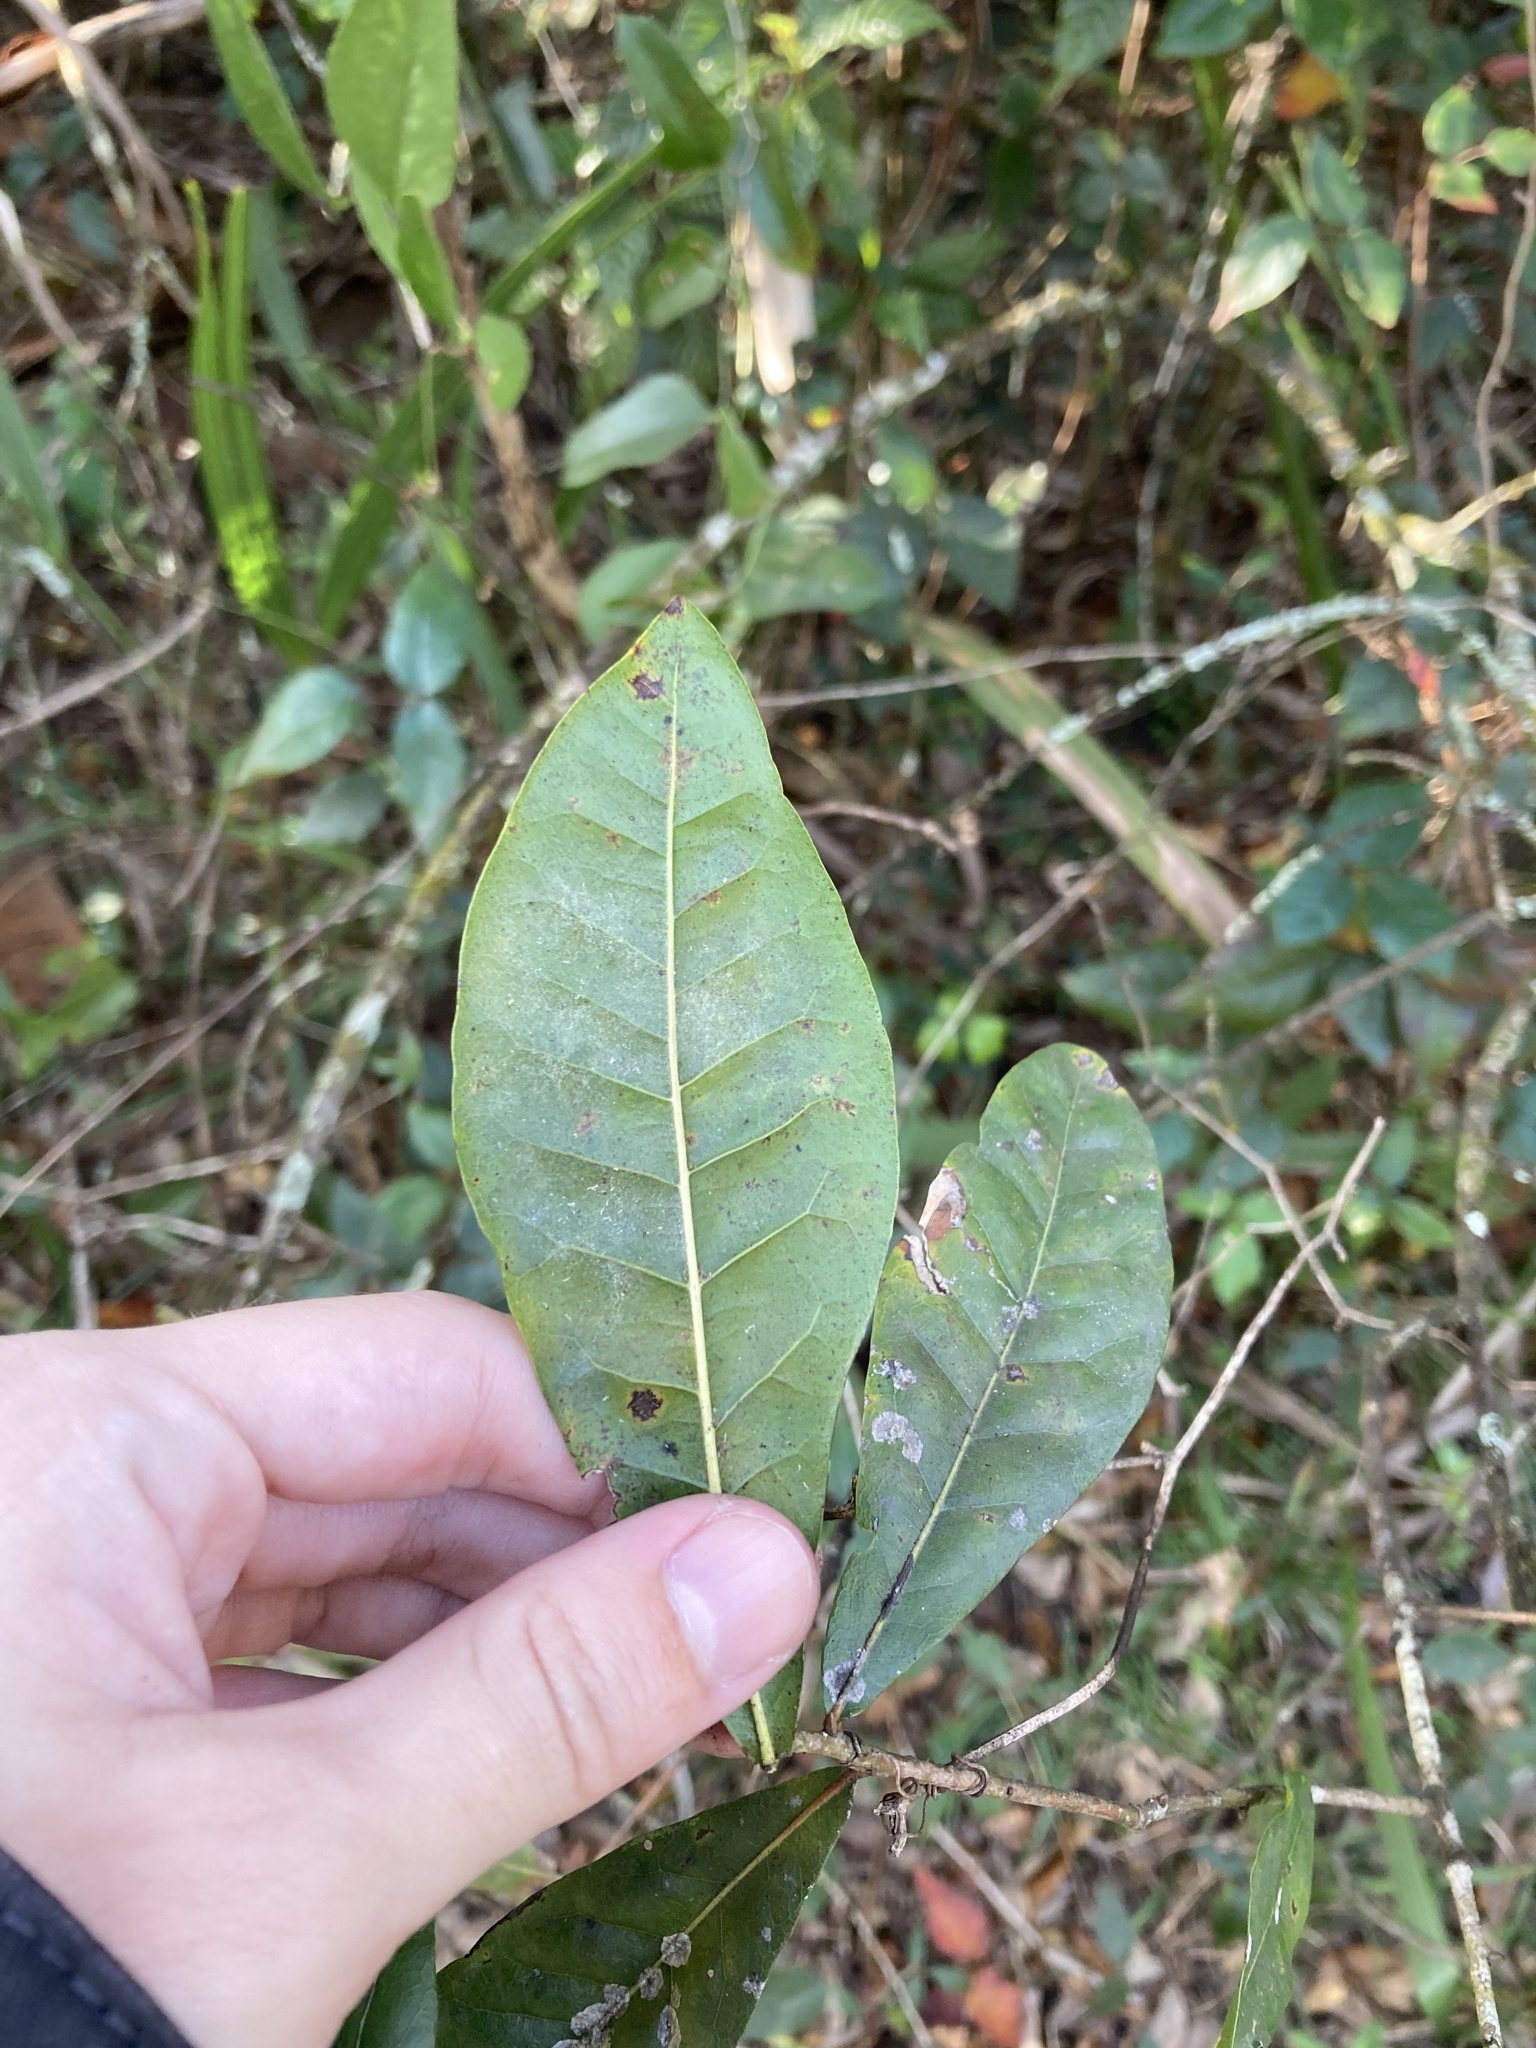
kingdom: Plantae
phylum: Tracheophyta
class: Magnoliopsida
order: Fagales
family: Fagaceae
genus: Quercus
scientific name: Quercus laurifolia
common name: Swamp laurel oak
